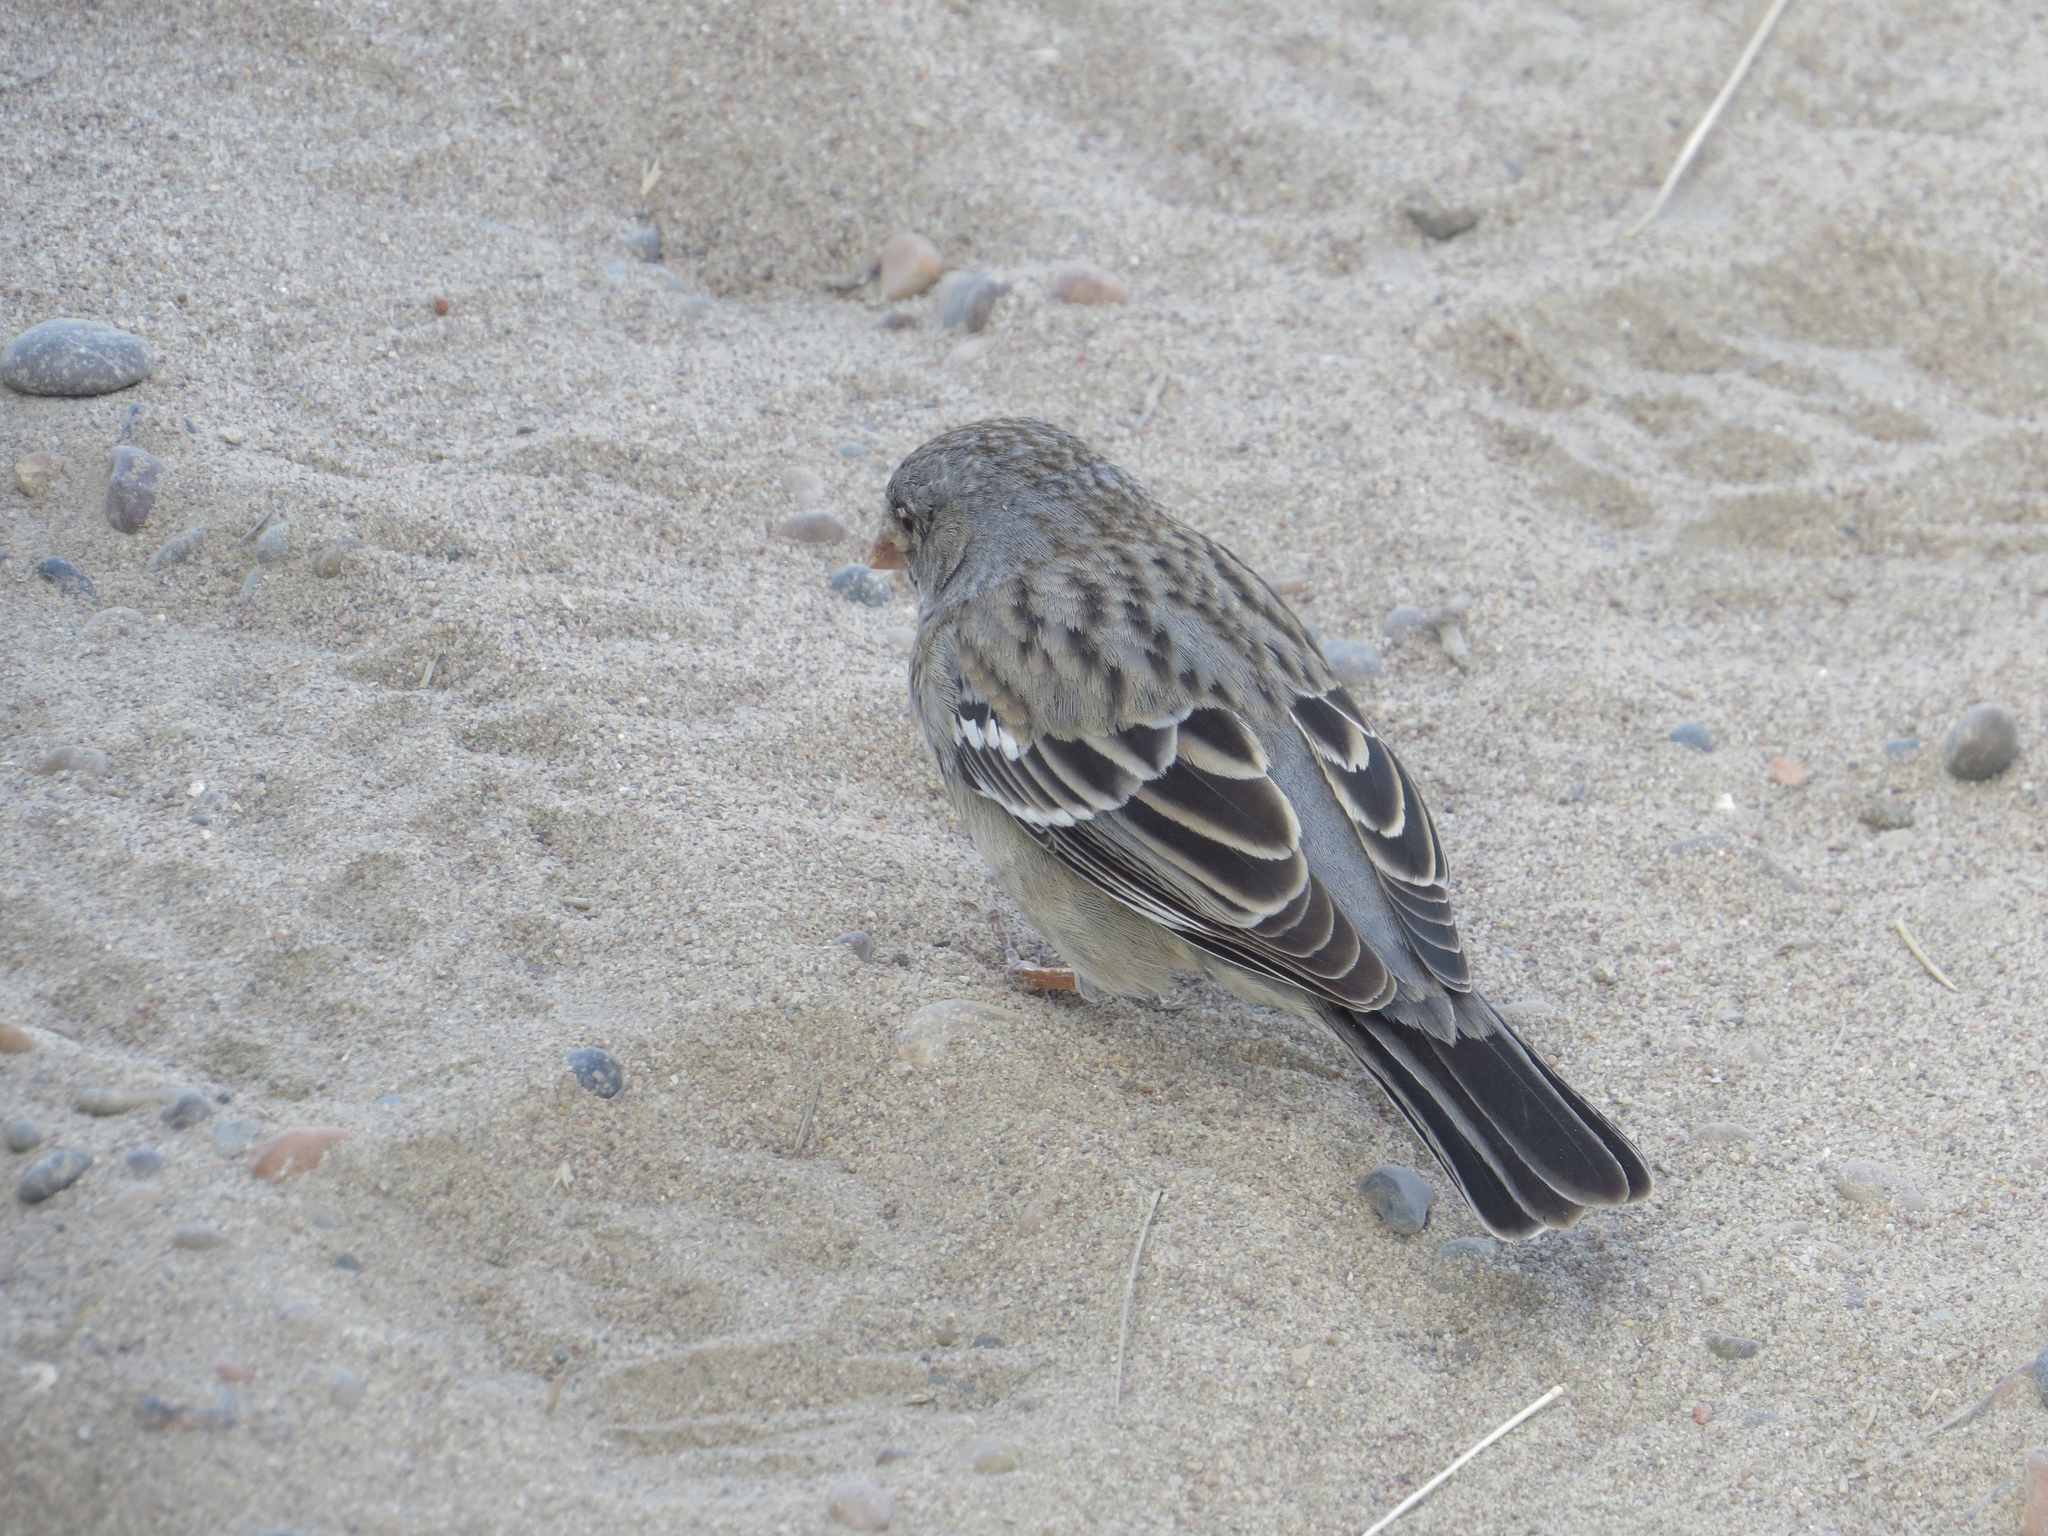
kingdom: Animalia
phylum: Chordata
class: Aves
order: Passeriformes
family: Thraupidae
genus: Rhopospina
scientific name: Rhopospina fruticeti
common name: Mourning sierra finch
